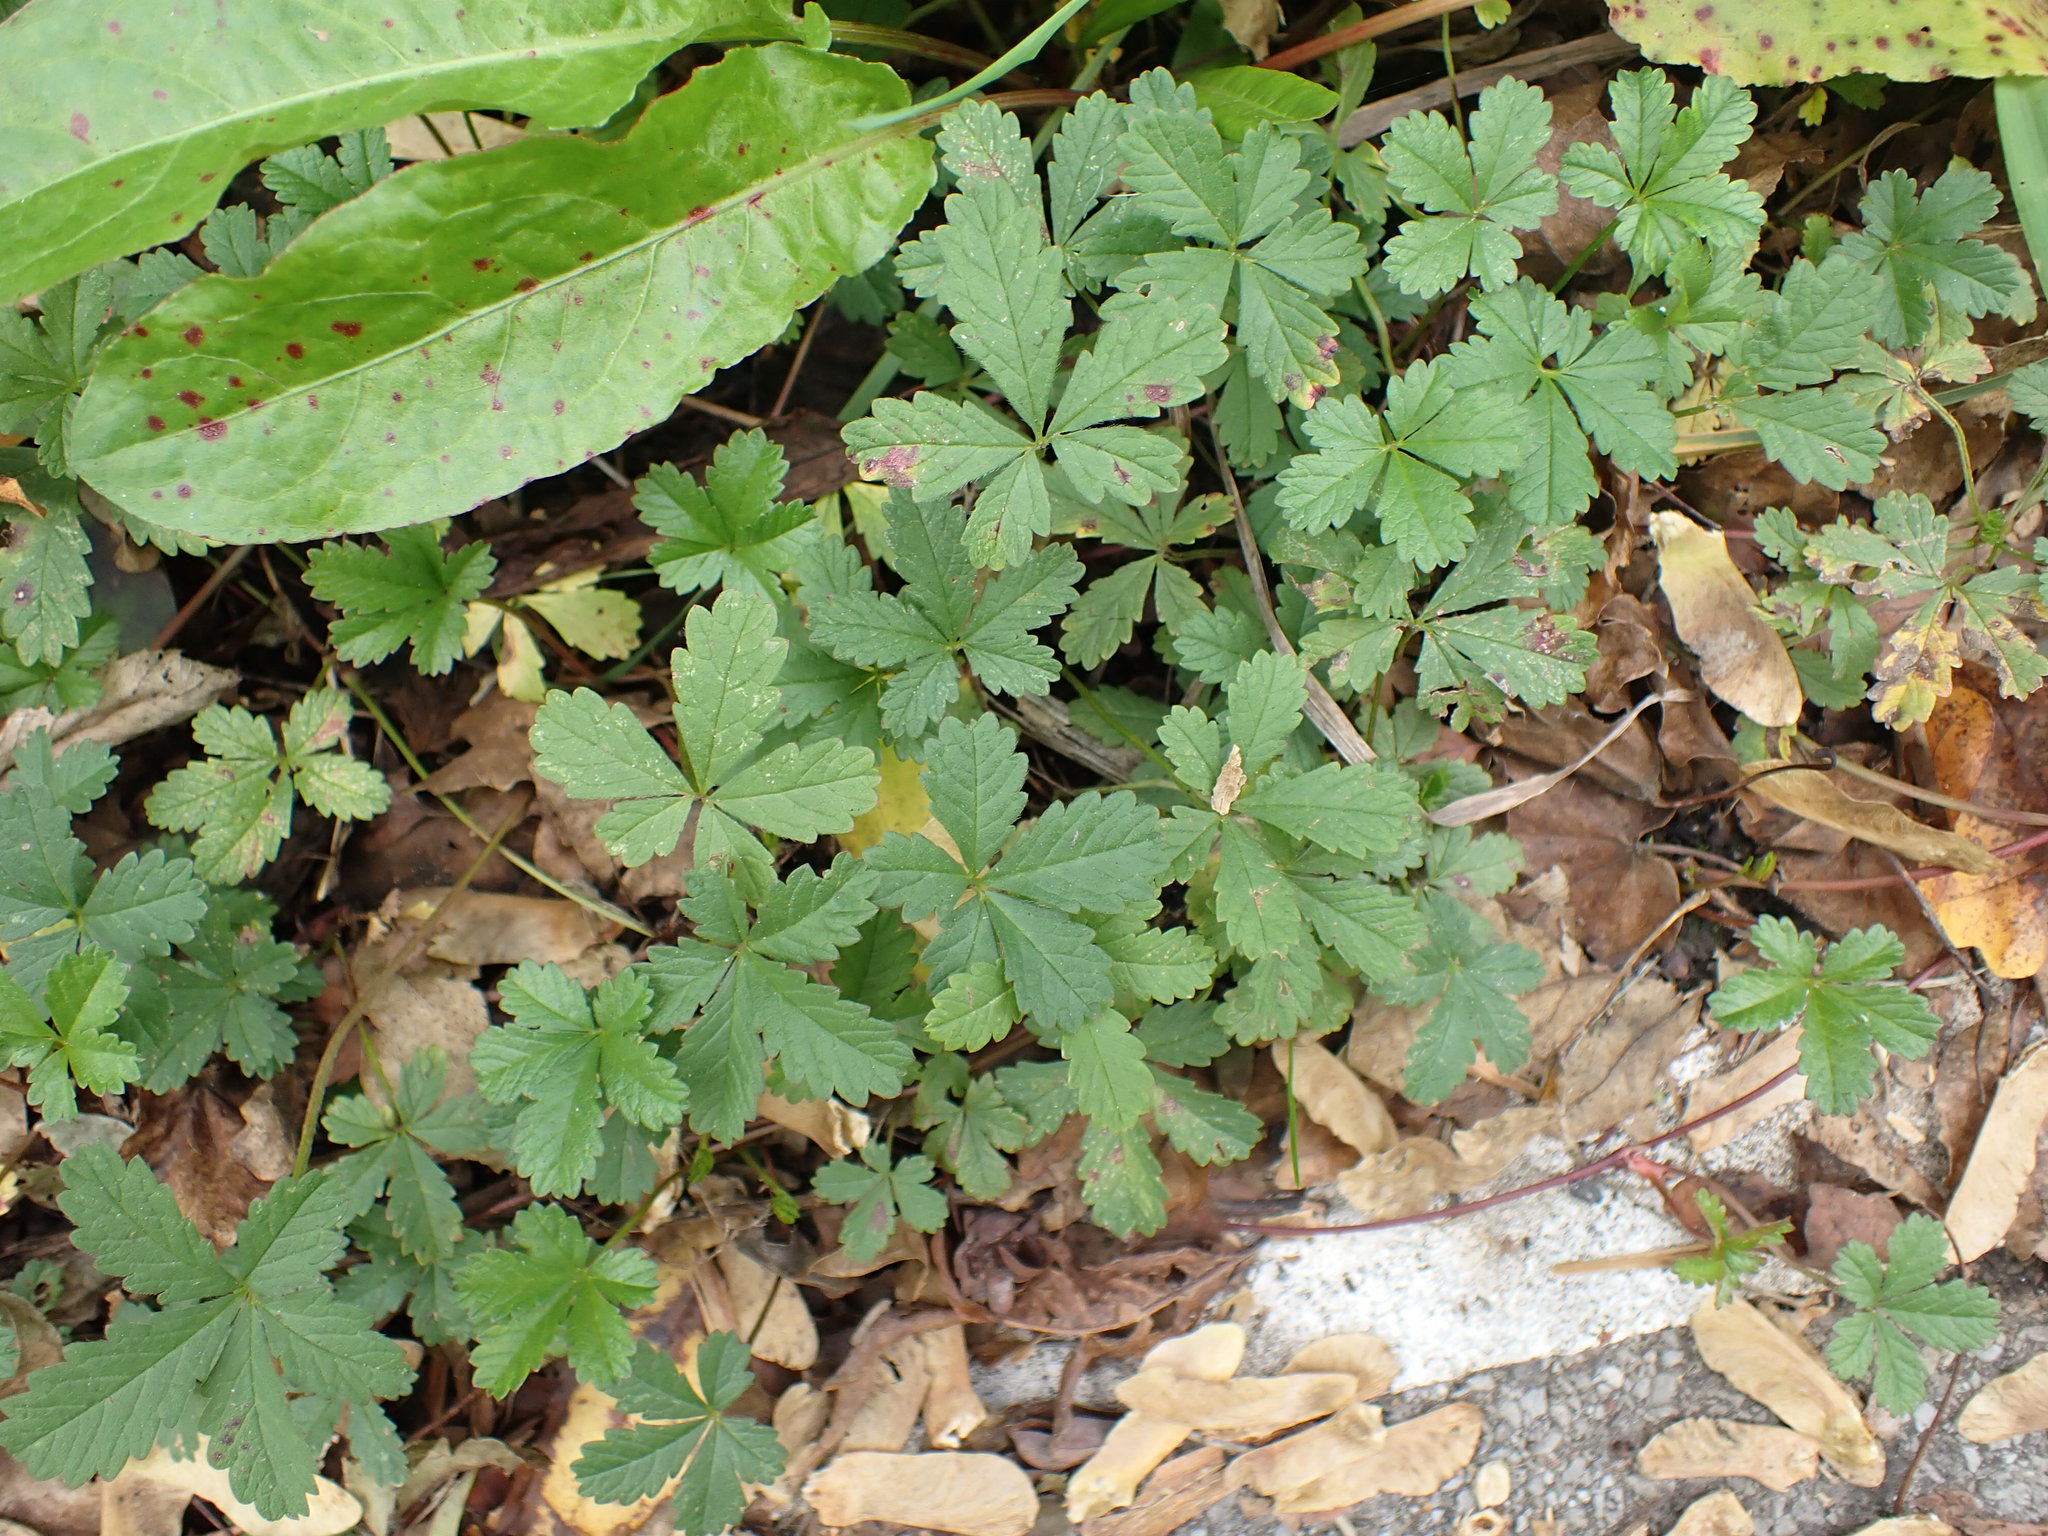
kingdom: Plantae
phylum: Tracheophyta
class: Magnoliopsida
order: Rosales
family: Rosaceae
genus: Potentilla
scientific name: Potentilla reptans
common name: Creeping cinquefoil
